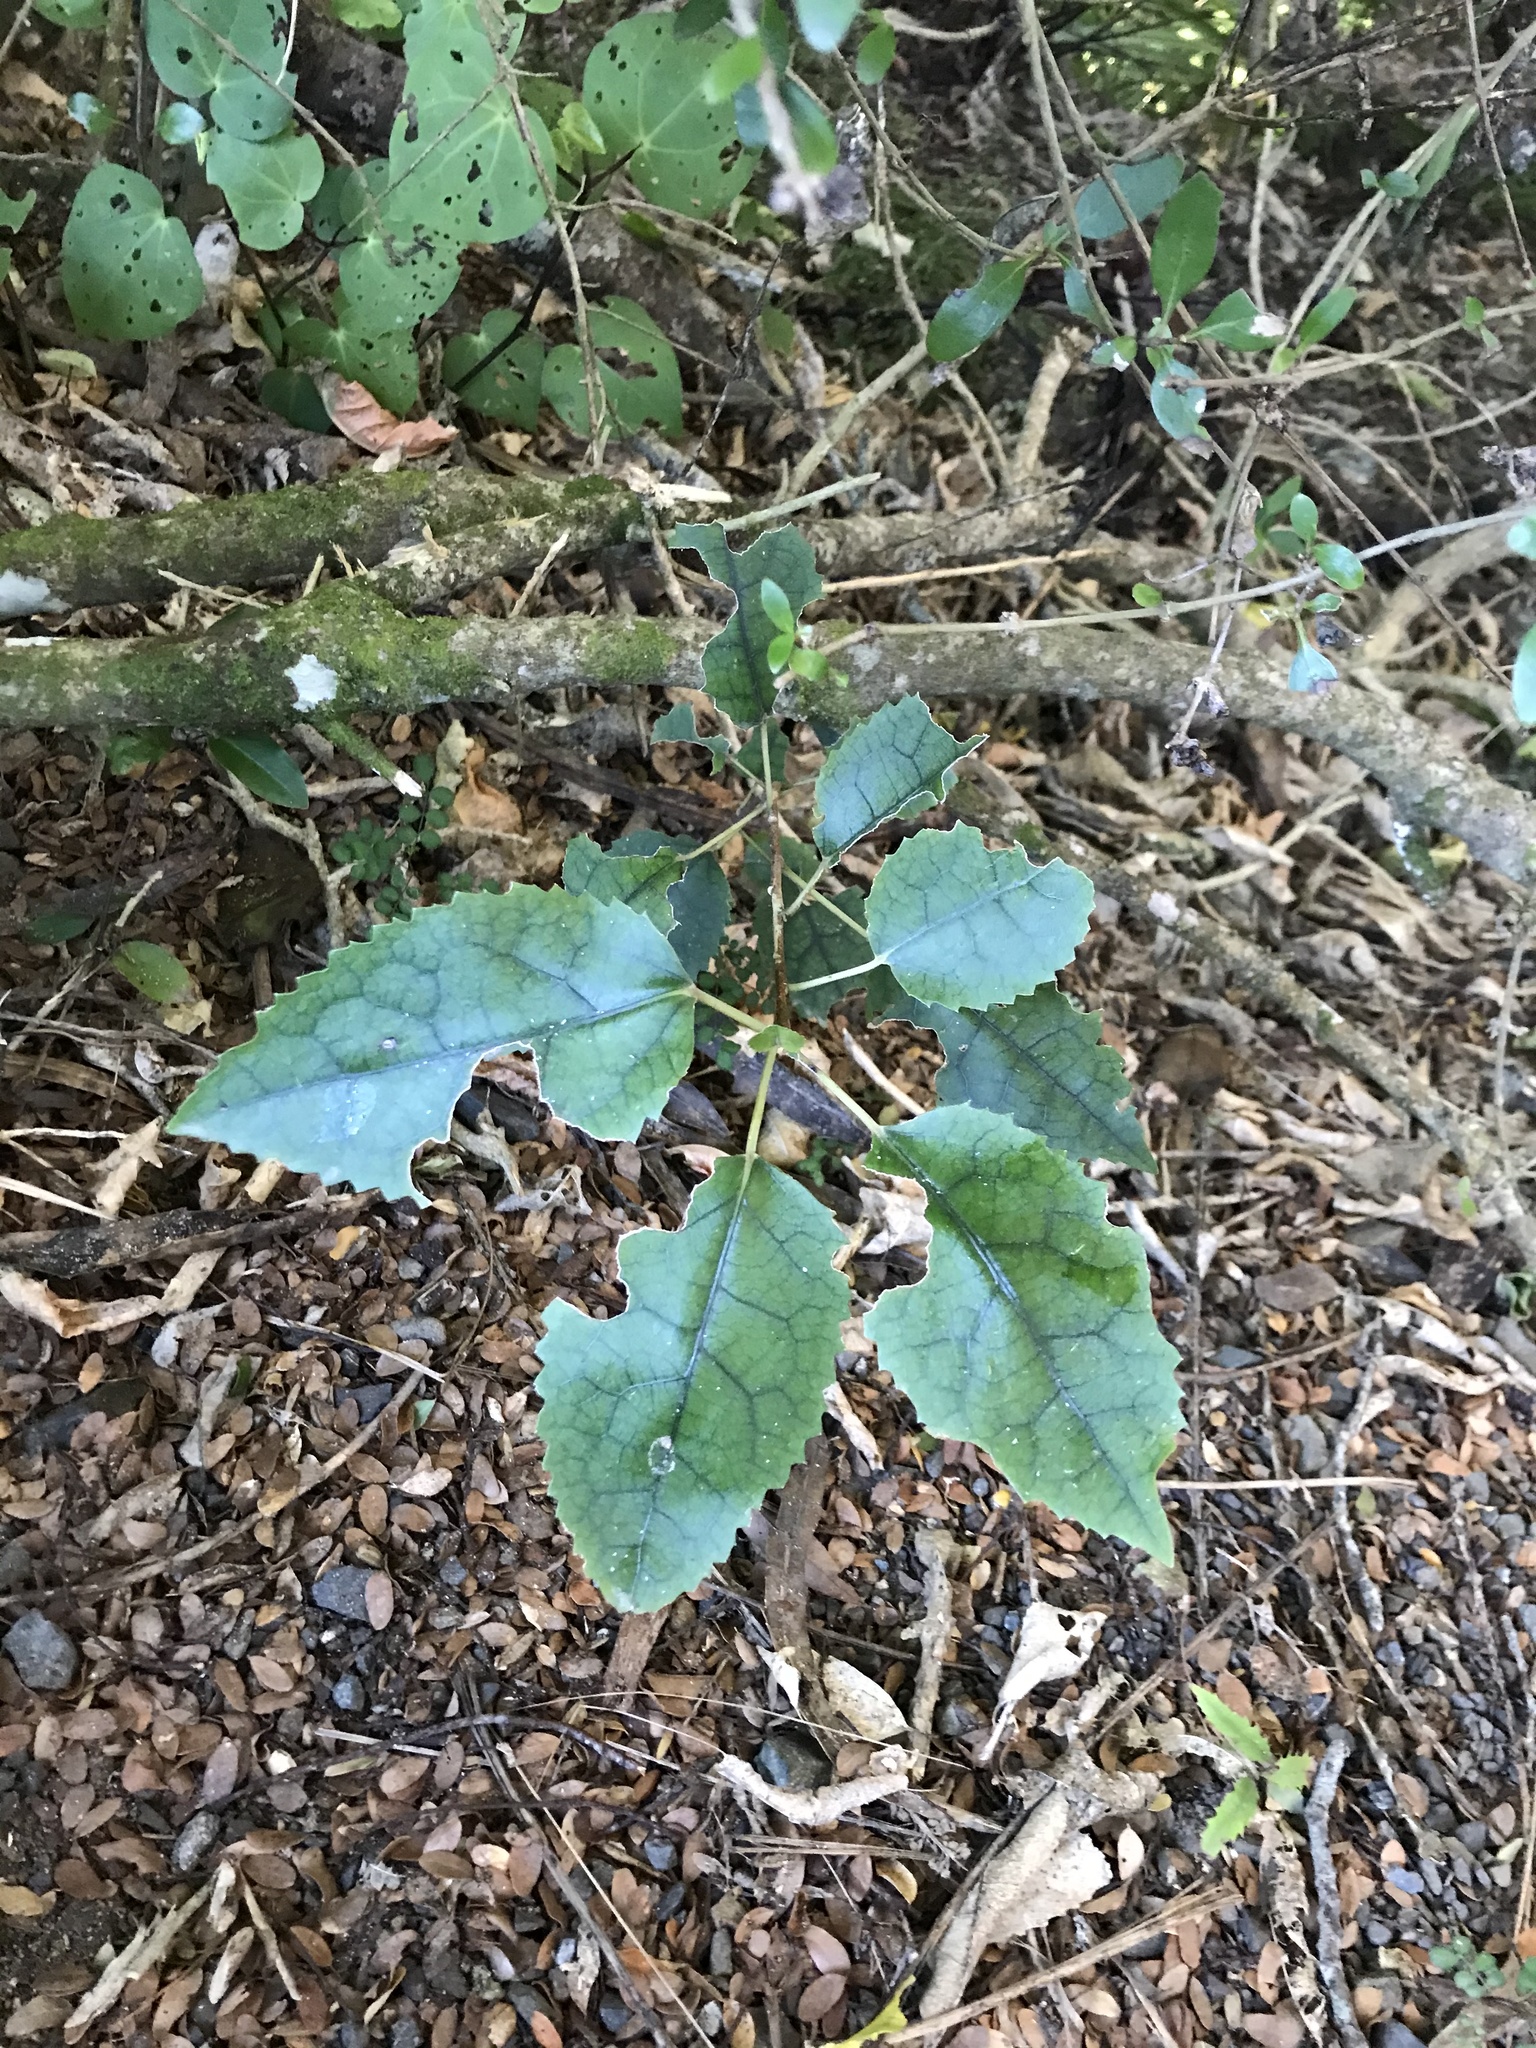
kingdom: Plantae
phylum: Tracheophyta
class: Magnoliopsida
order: Malvales
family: Malvaceae
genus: Hoheria
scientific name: Hoheria populnea
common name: Lacebark
